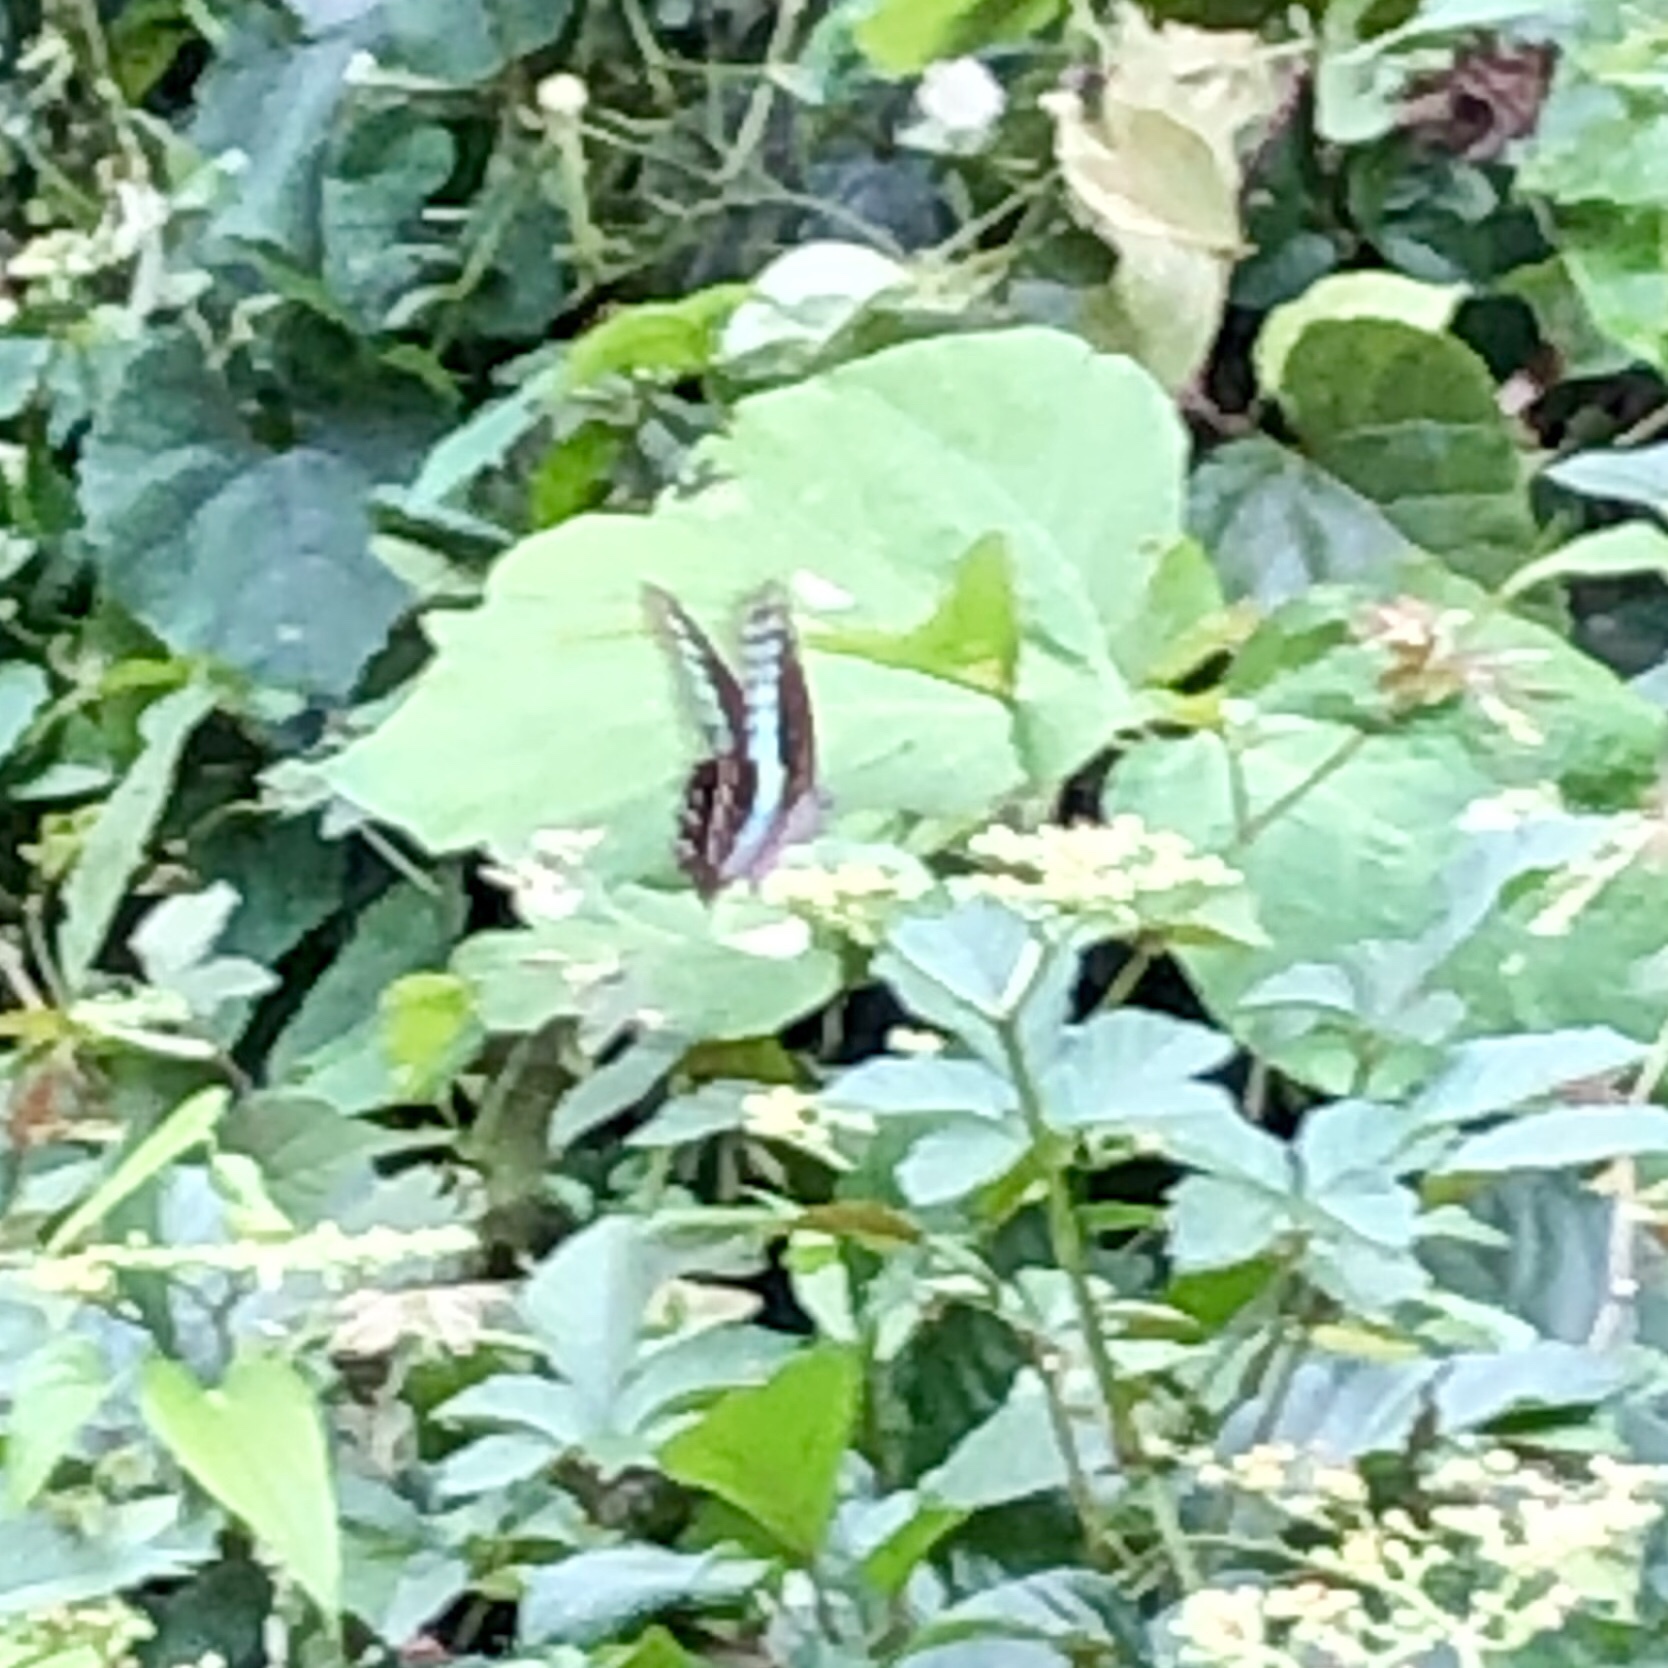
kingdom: Fungi
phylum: Ascomycota
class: Sordariomycetes
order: Microascales
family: Microascaceae
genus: Graphium
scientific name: Graphium sarpedon
